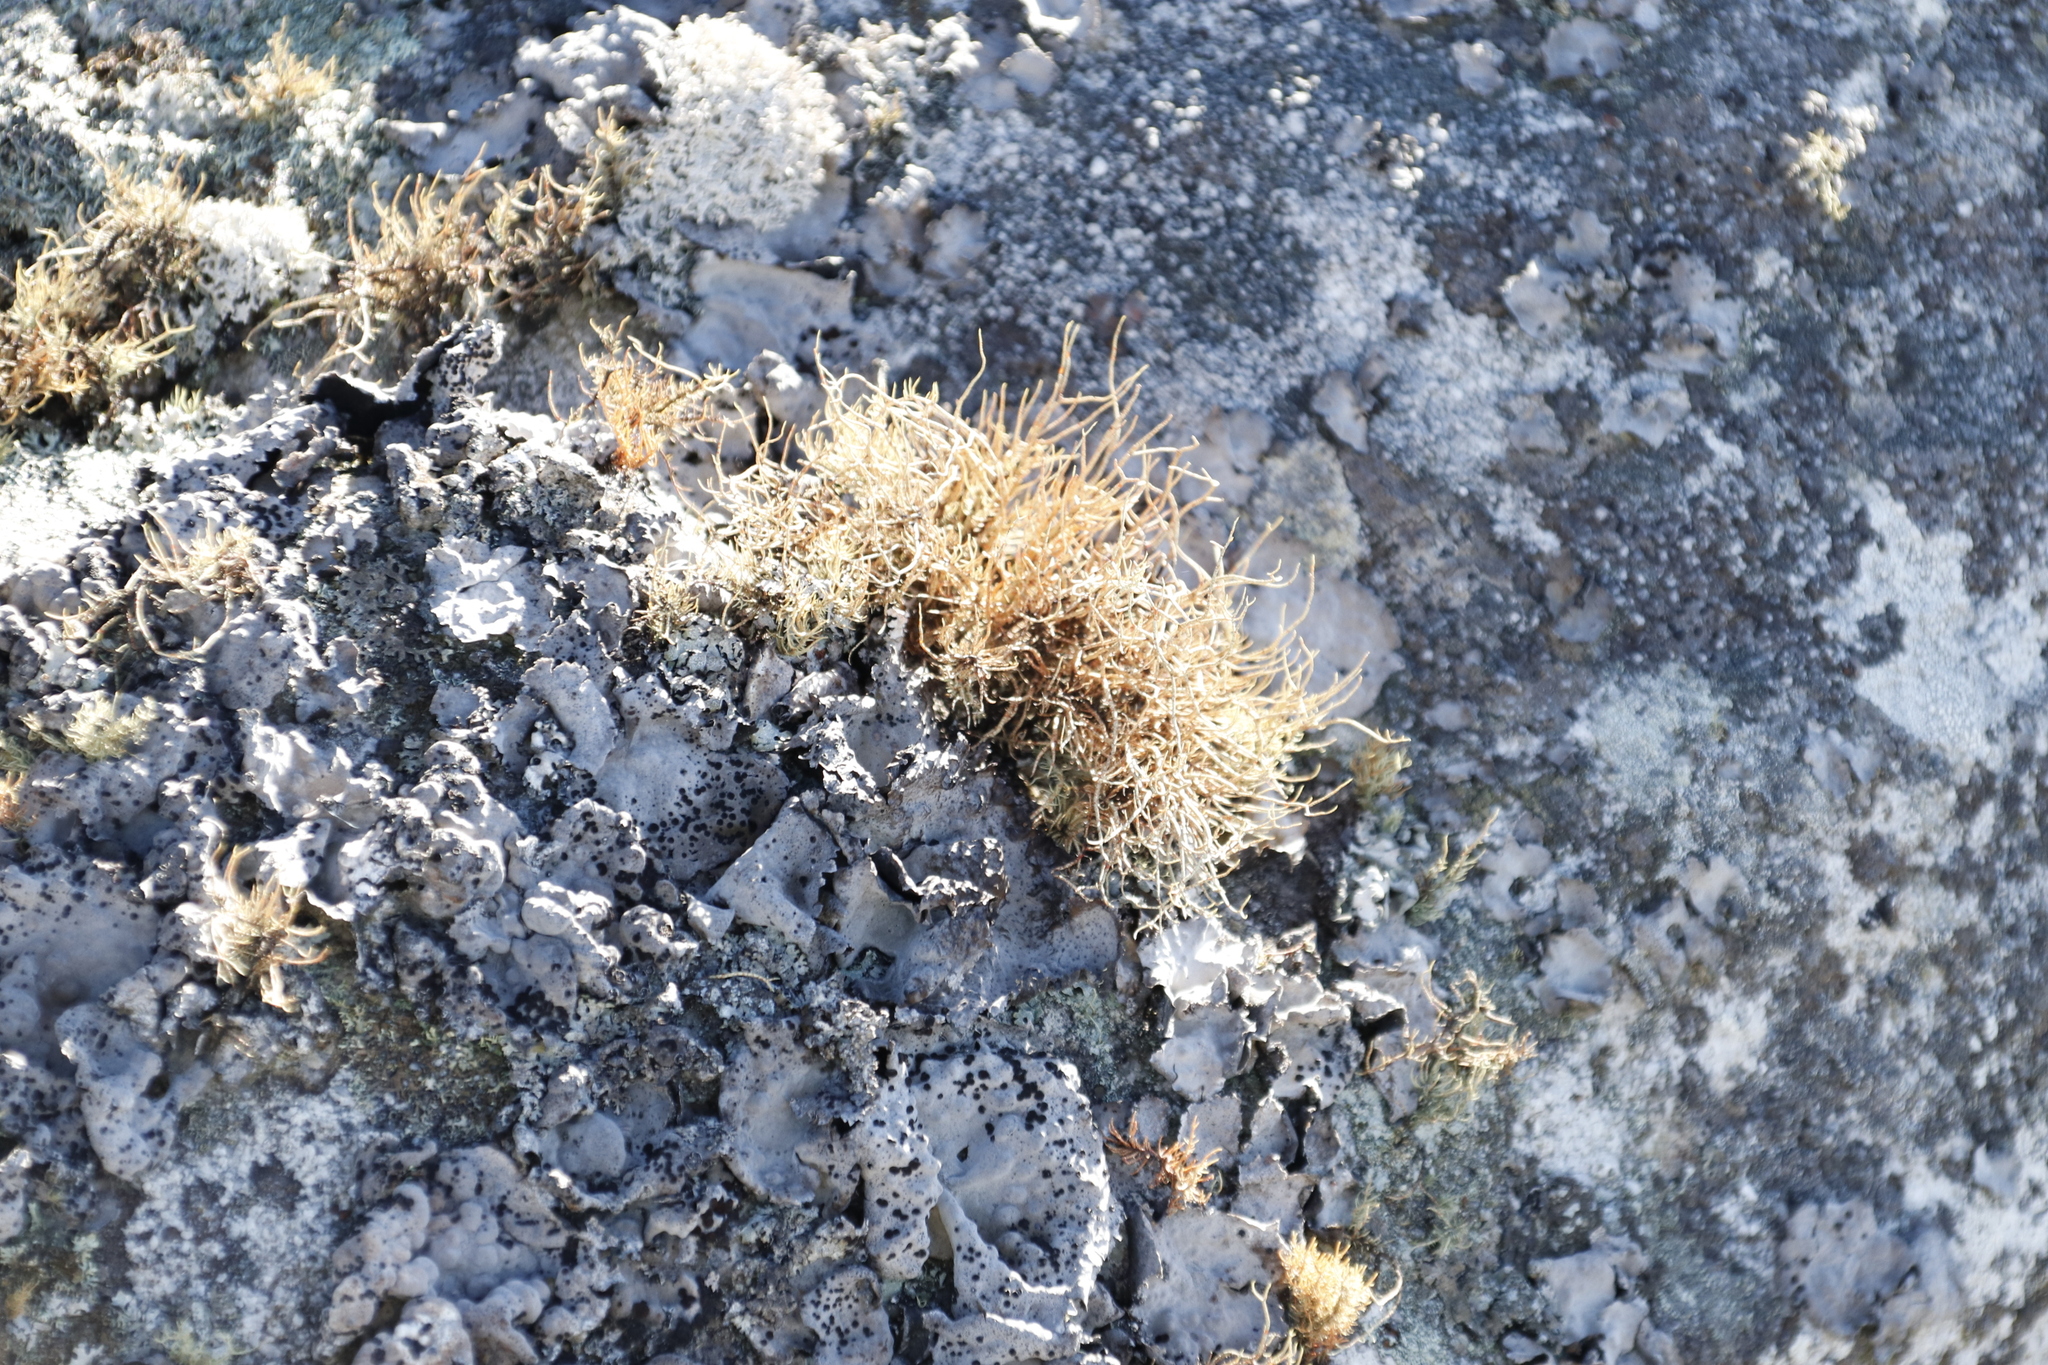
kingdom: Fungi
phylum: Ascomycota
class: Lecanoromycetes
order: Lecanorales
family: Parmeliaceae
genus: Usnea
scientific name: Usnea maculata
